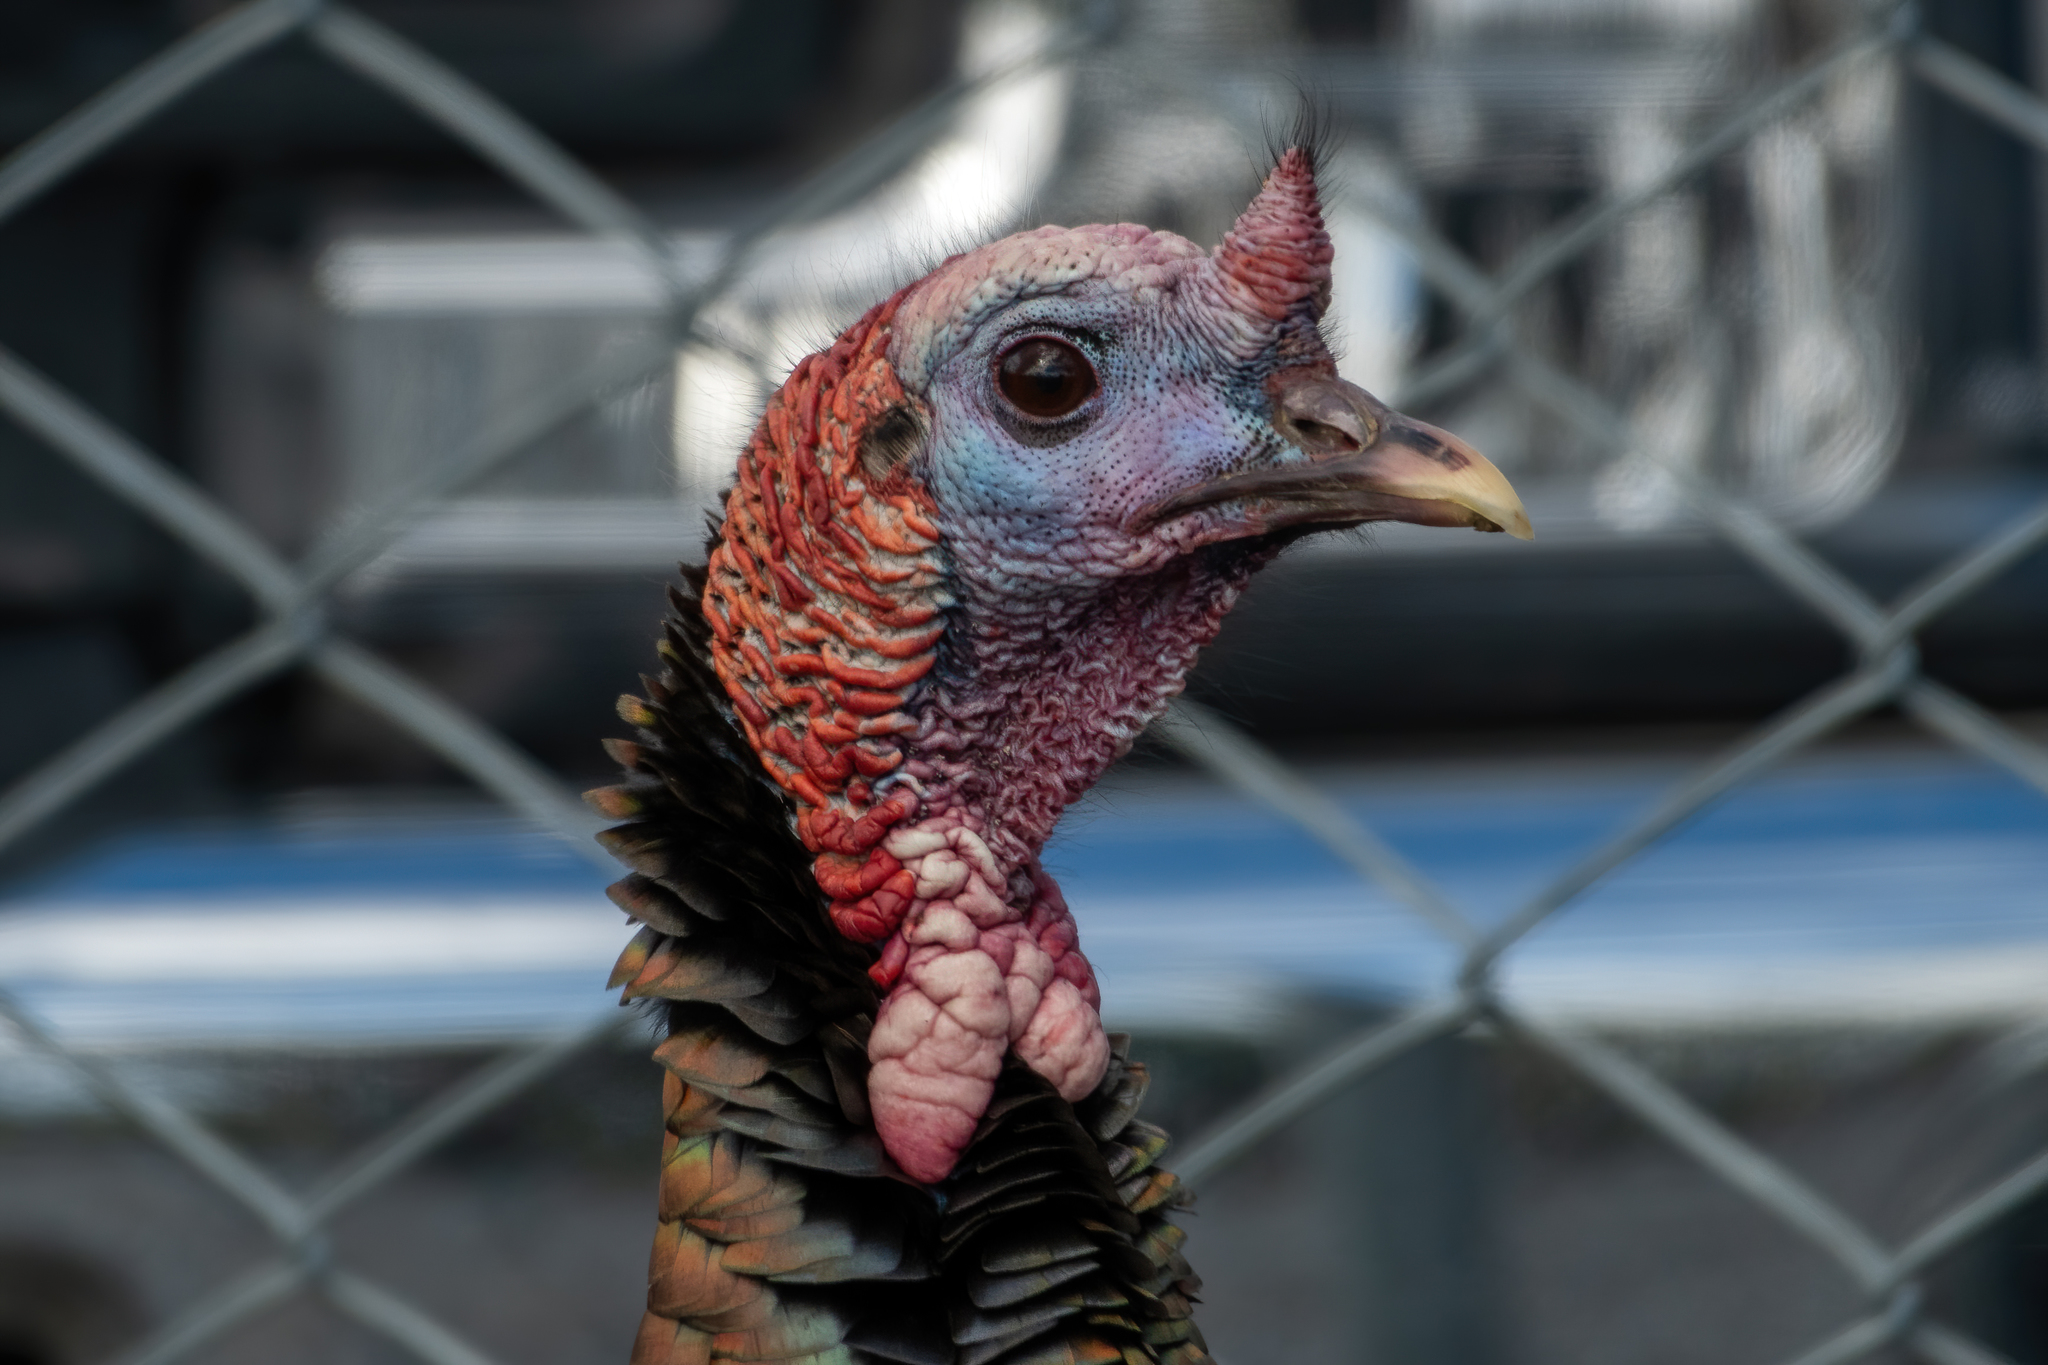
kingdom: Animalia
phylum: Chordata
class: Aves
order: Galliformes
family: Phasianidae
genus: Meleagris
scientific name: Meleagris gallopavo
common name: Wild turkey
